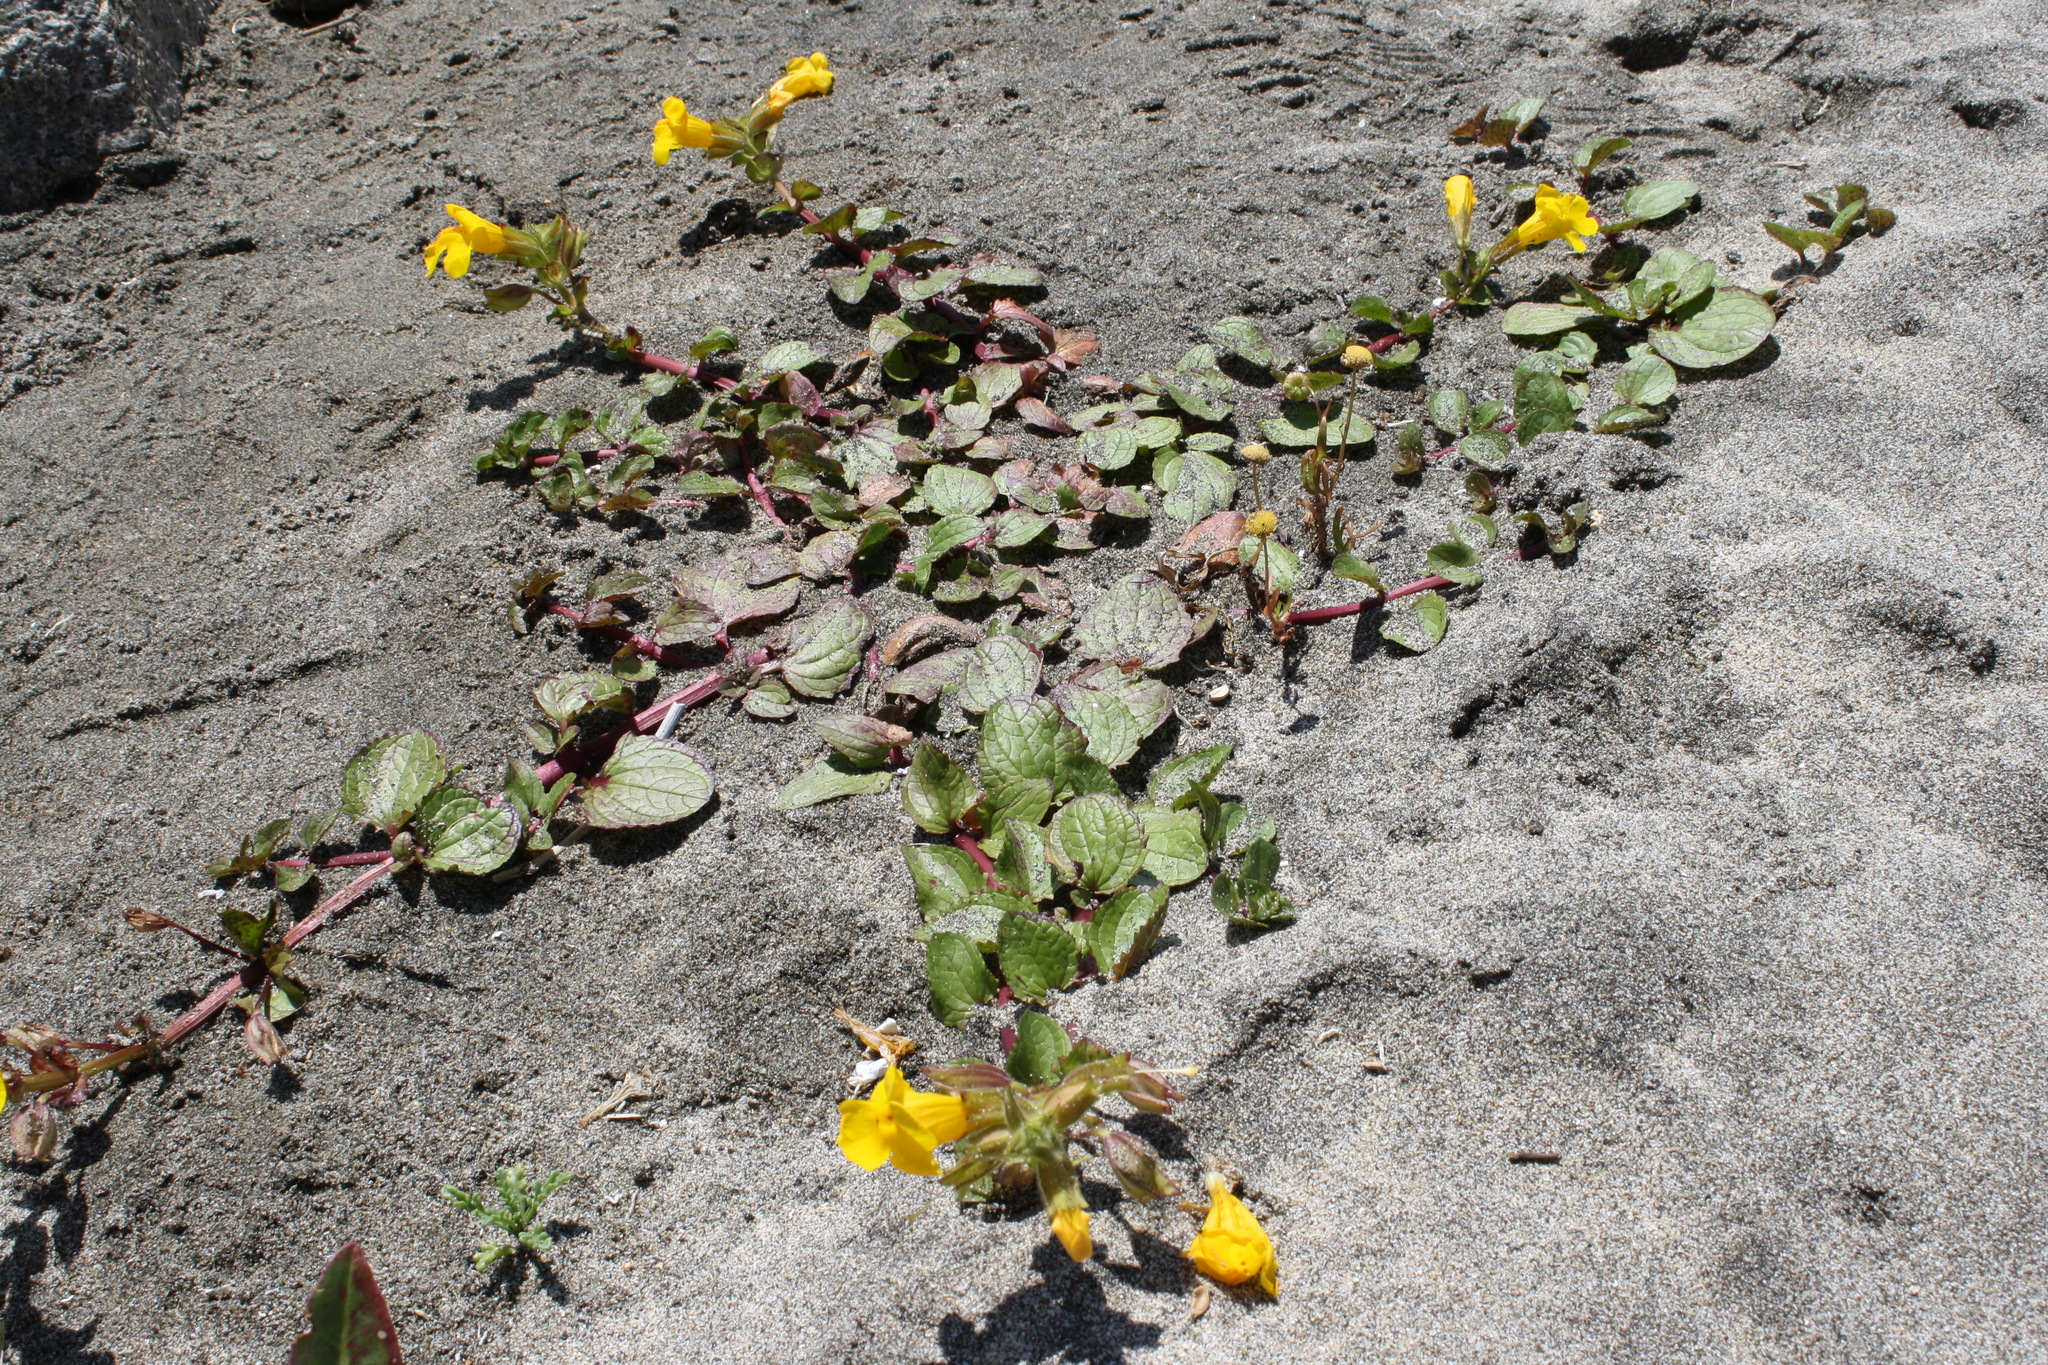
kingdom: Plantae
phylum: Tracheophyta
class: Magnoliopsida
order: Lamiales
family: Phrymaceae
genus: Erythranthe
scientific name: Erythranthe grandis
